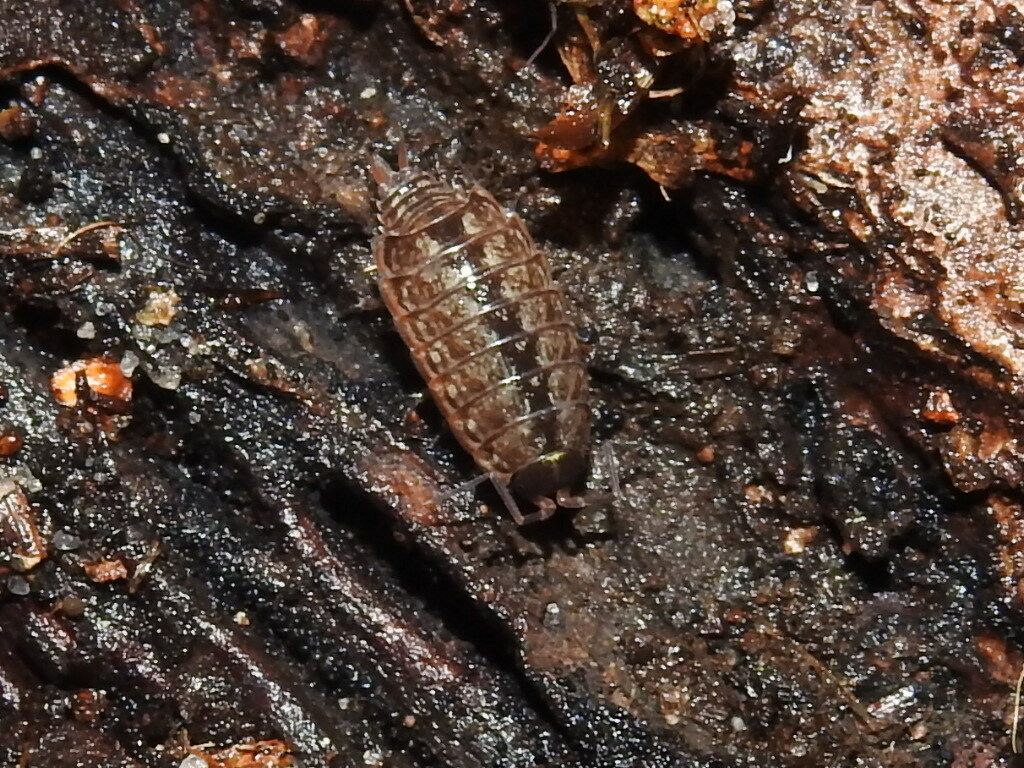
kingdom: Animalia
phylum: Arthropoda
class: Malacostraca
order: Isopoda
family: Philosciidae
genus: Philoscia
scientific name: Philoscia muscorum
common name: Common striped woodlouse
